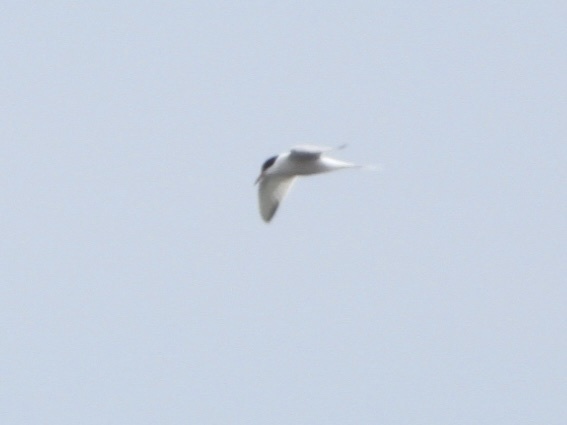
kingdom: Animalia
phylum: Chordata
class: Aves
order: Charadriiformes
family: Laridae
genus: Sterna
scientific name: Sterna hirundo
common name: Common tern
